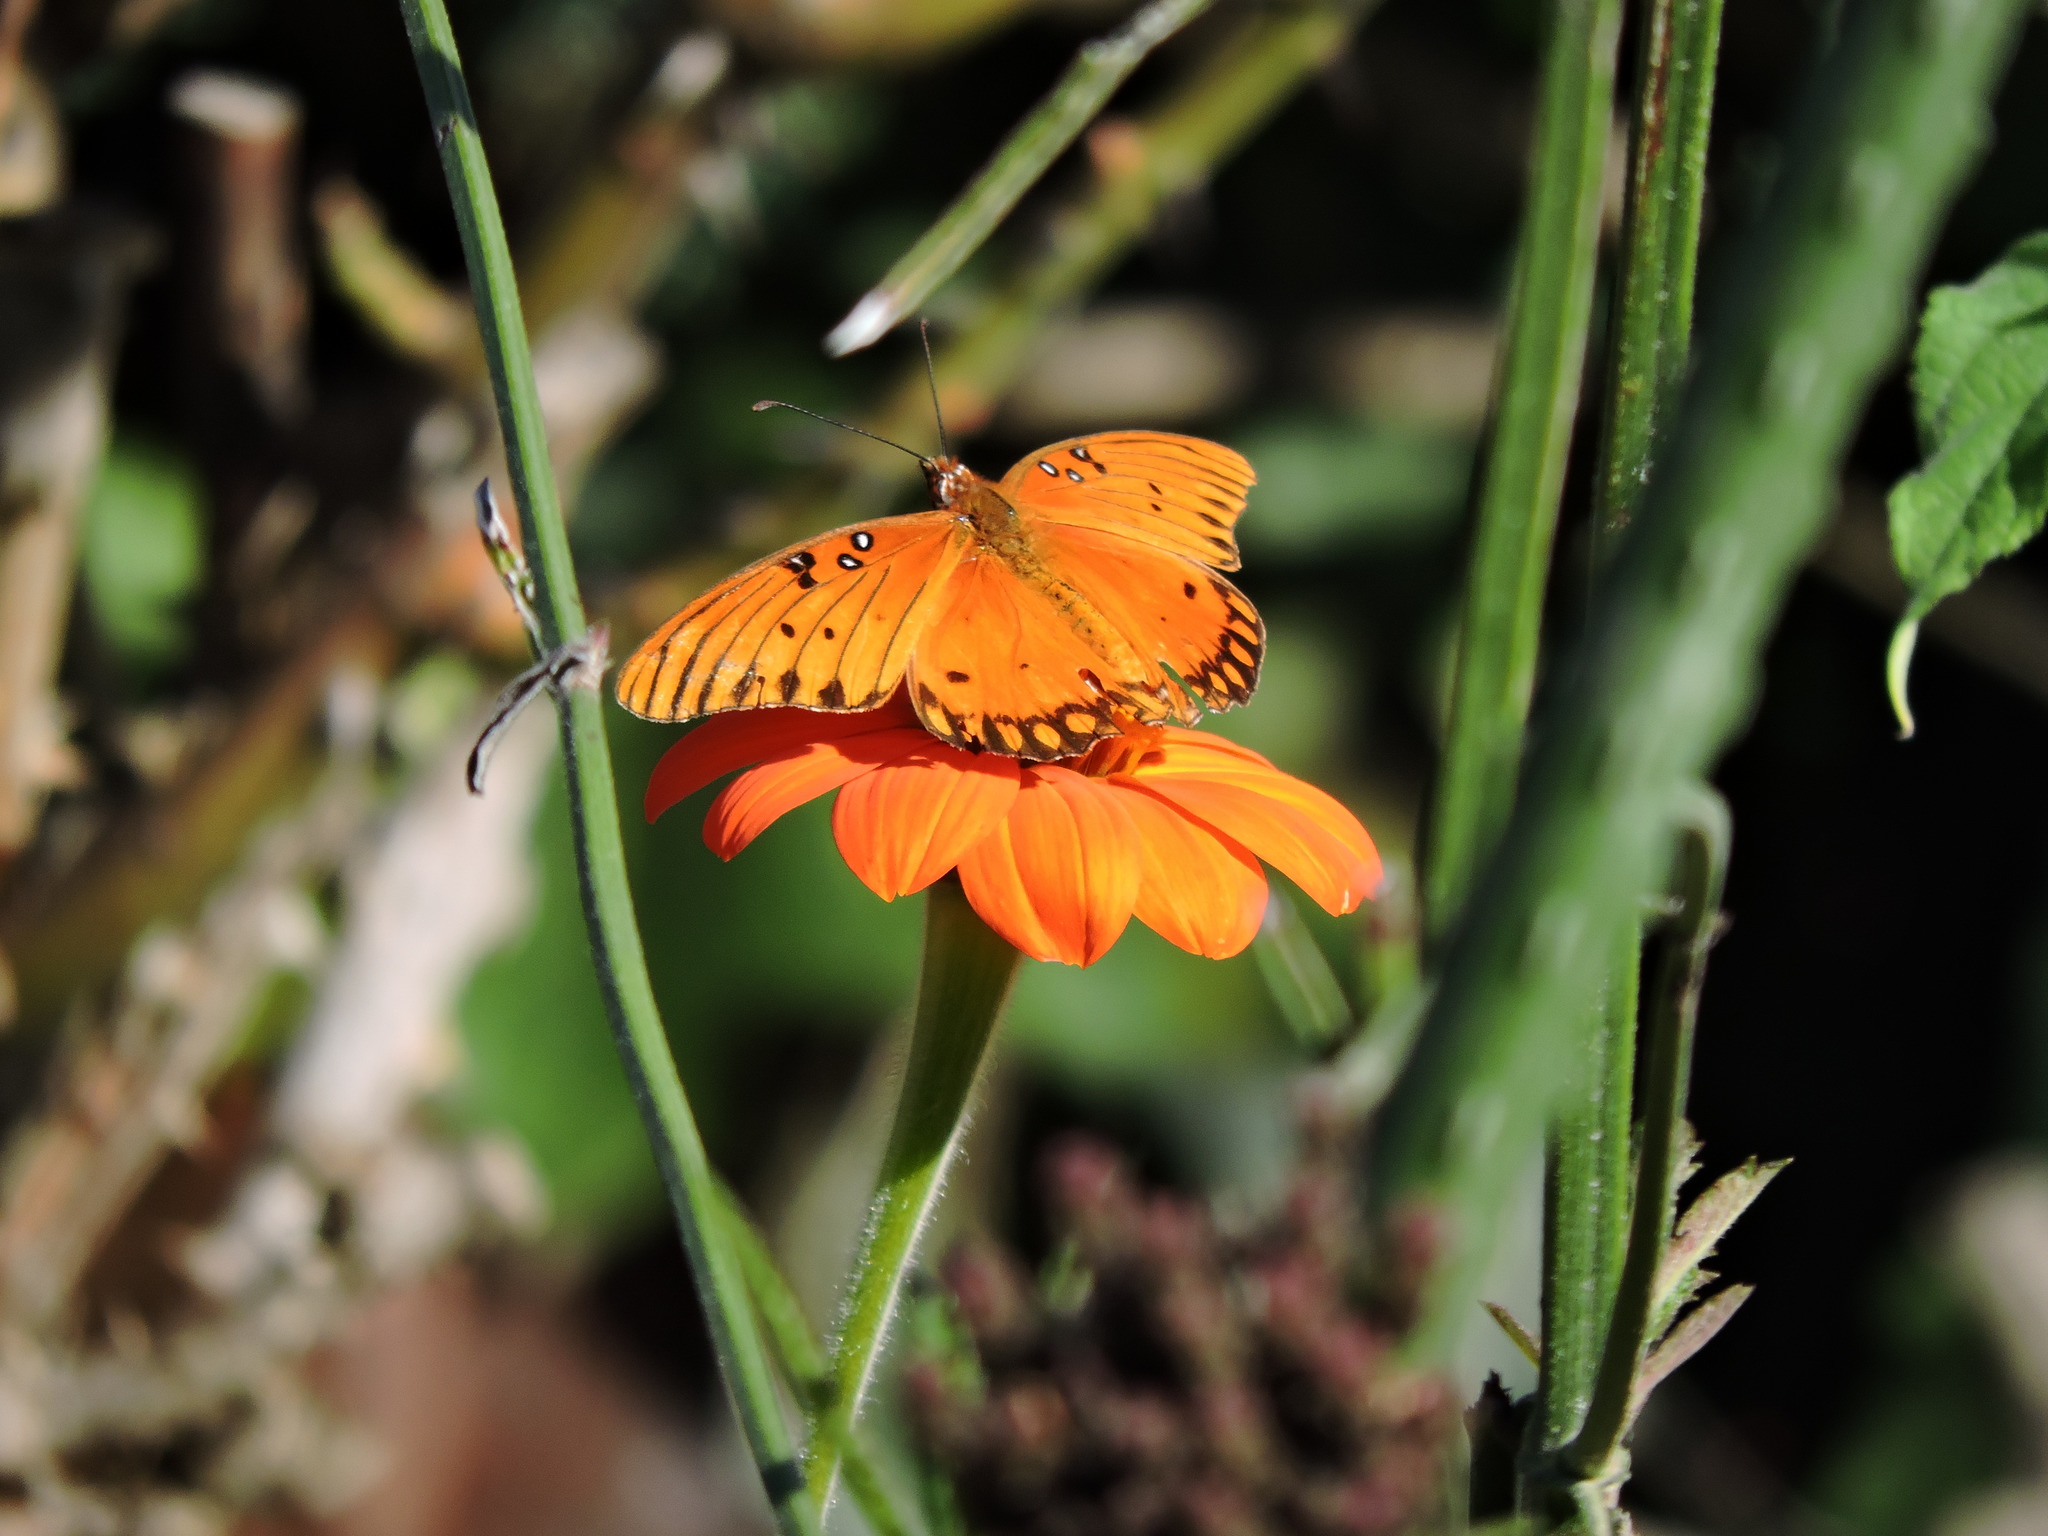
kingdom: Animalia
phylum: Arthropoda
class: Insecta
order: Lepidoptera
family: Nymphalidae
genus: Dione
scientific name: Dione vanillae
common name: Gulf fritillary
